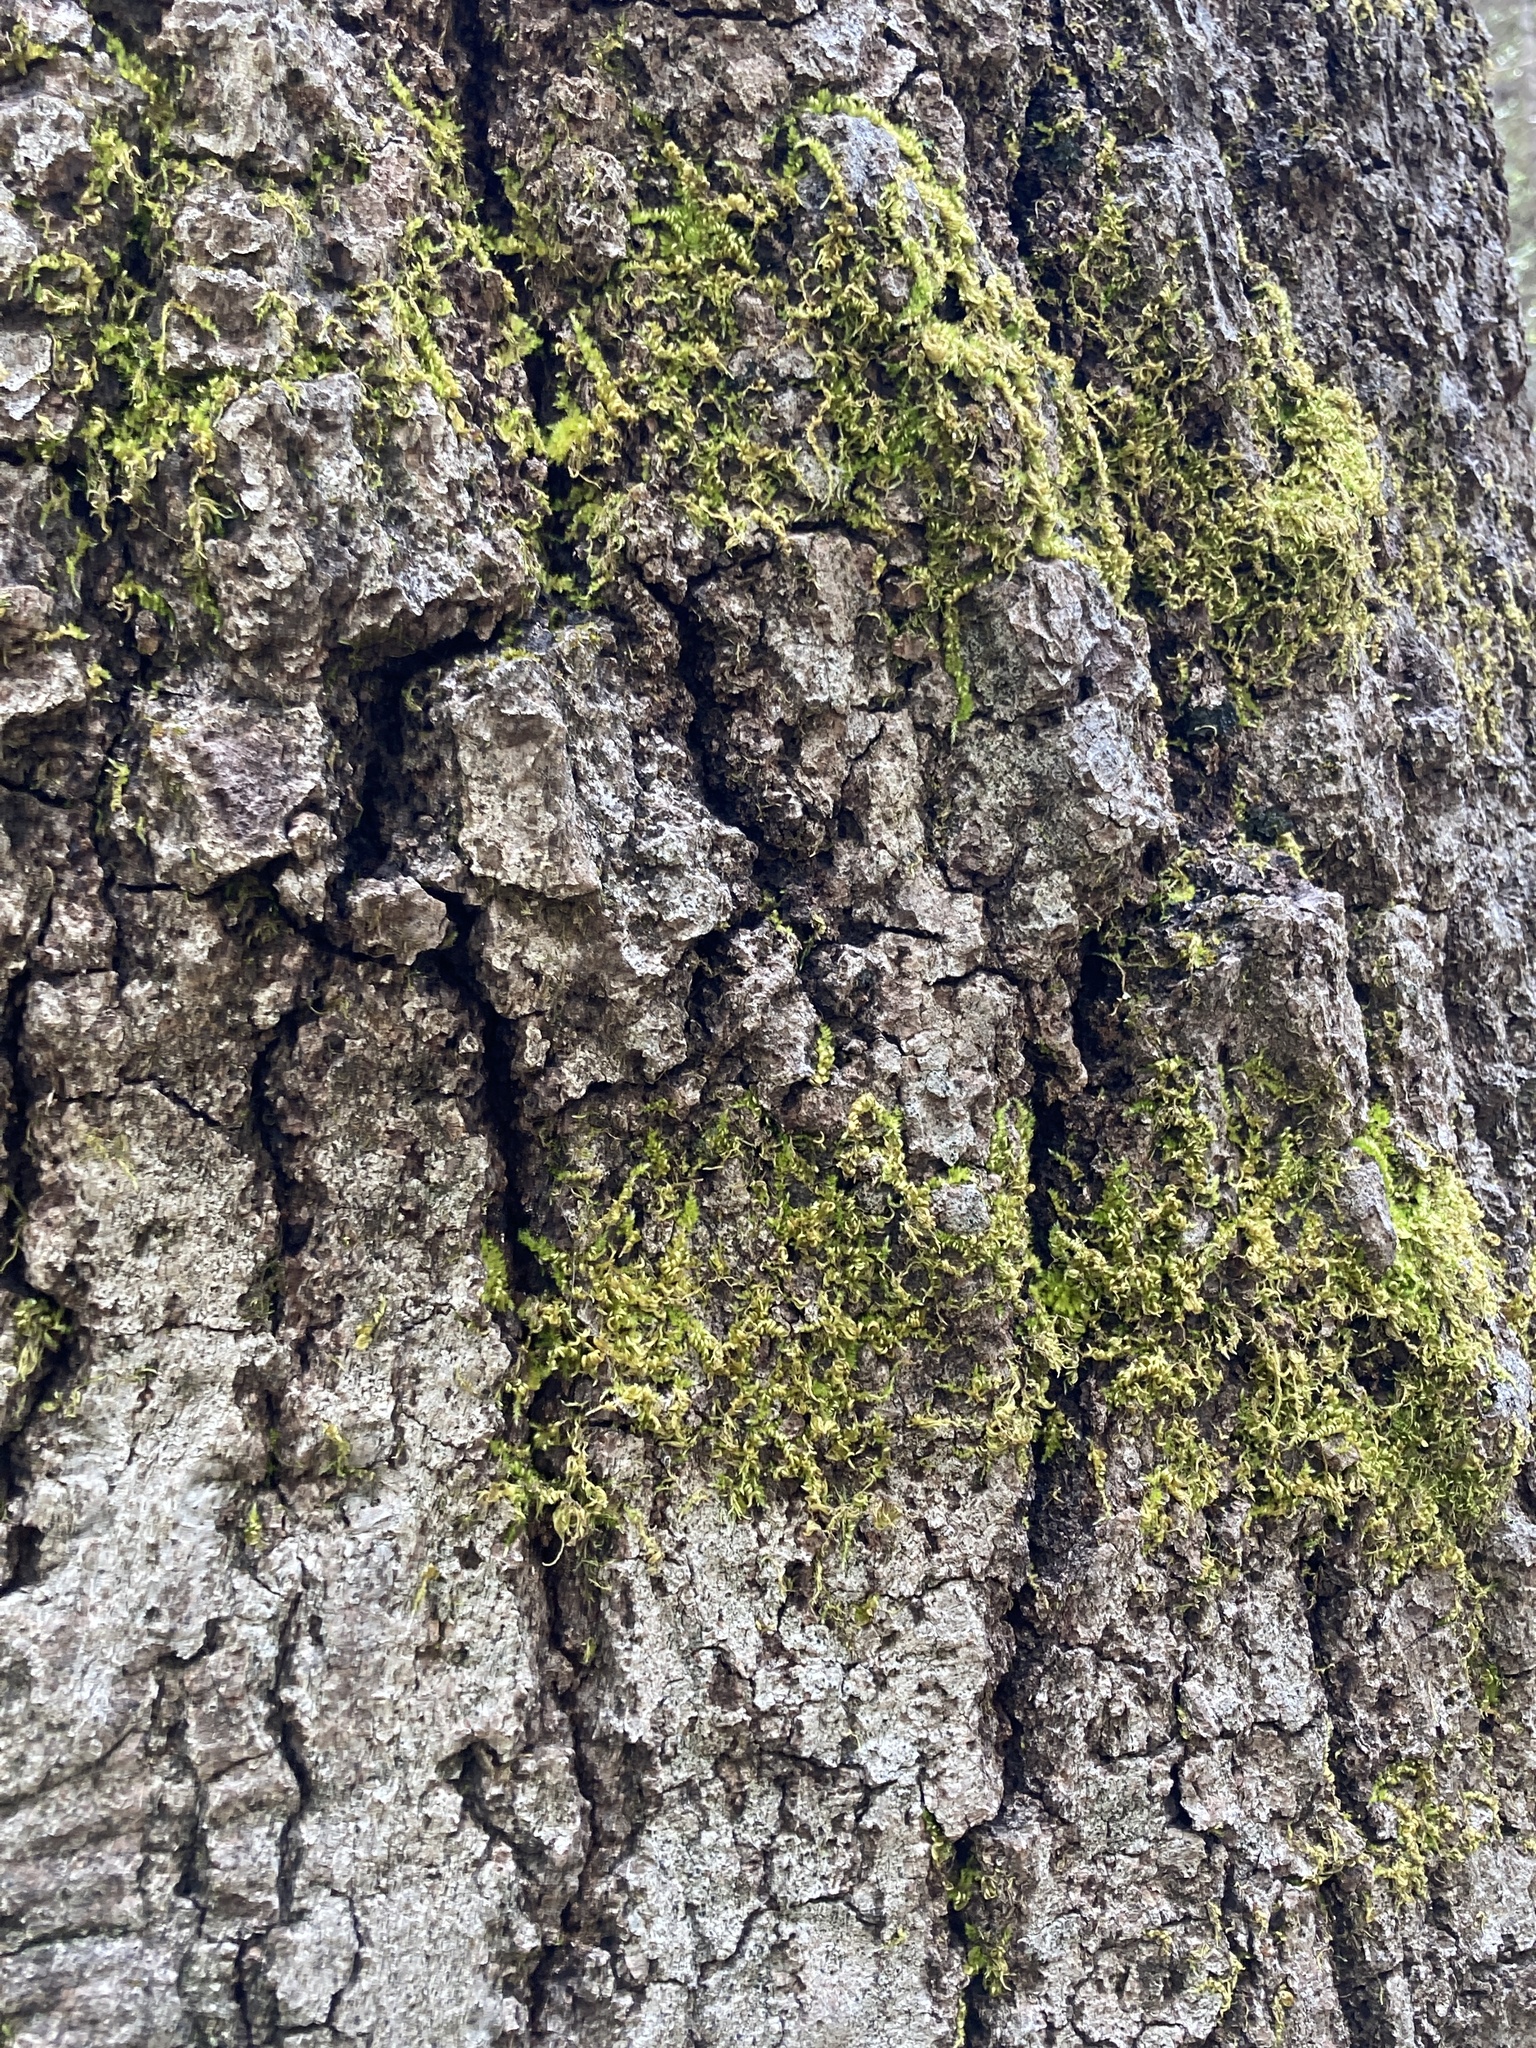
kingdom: Plantae
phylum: Bryophyta
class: Bryopsida
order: Hypnales
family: Brachytheciaceae
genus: Homalothecium
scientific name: Homalothecium nuttallii
